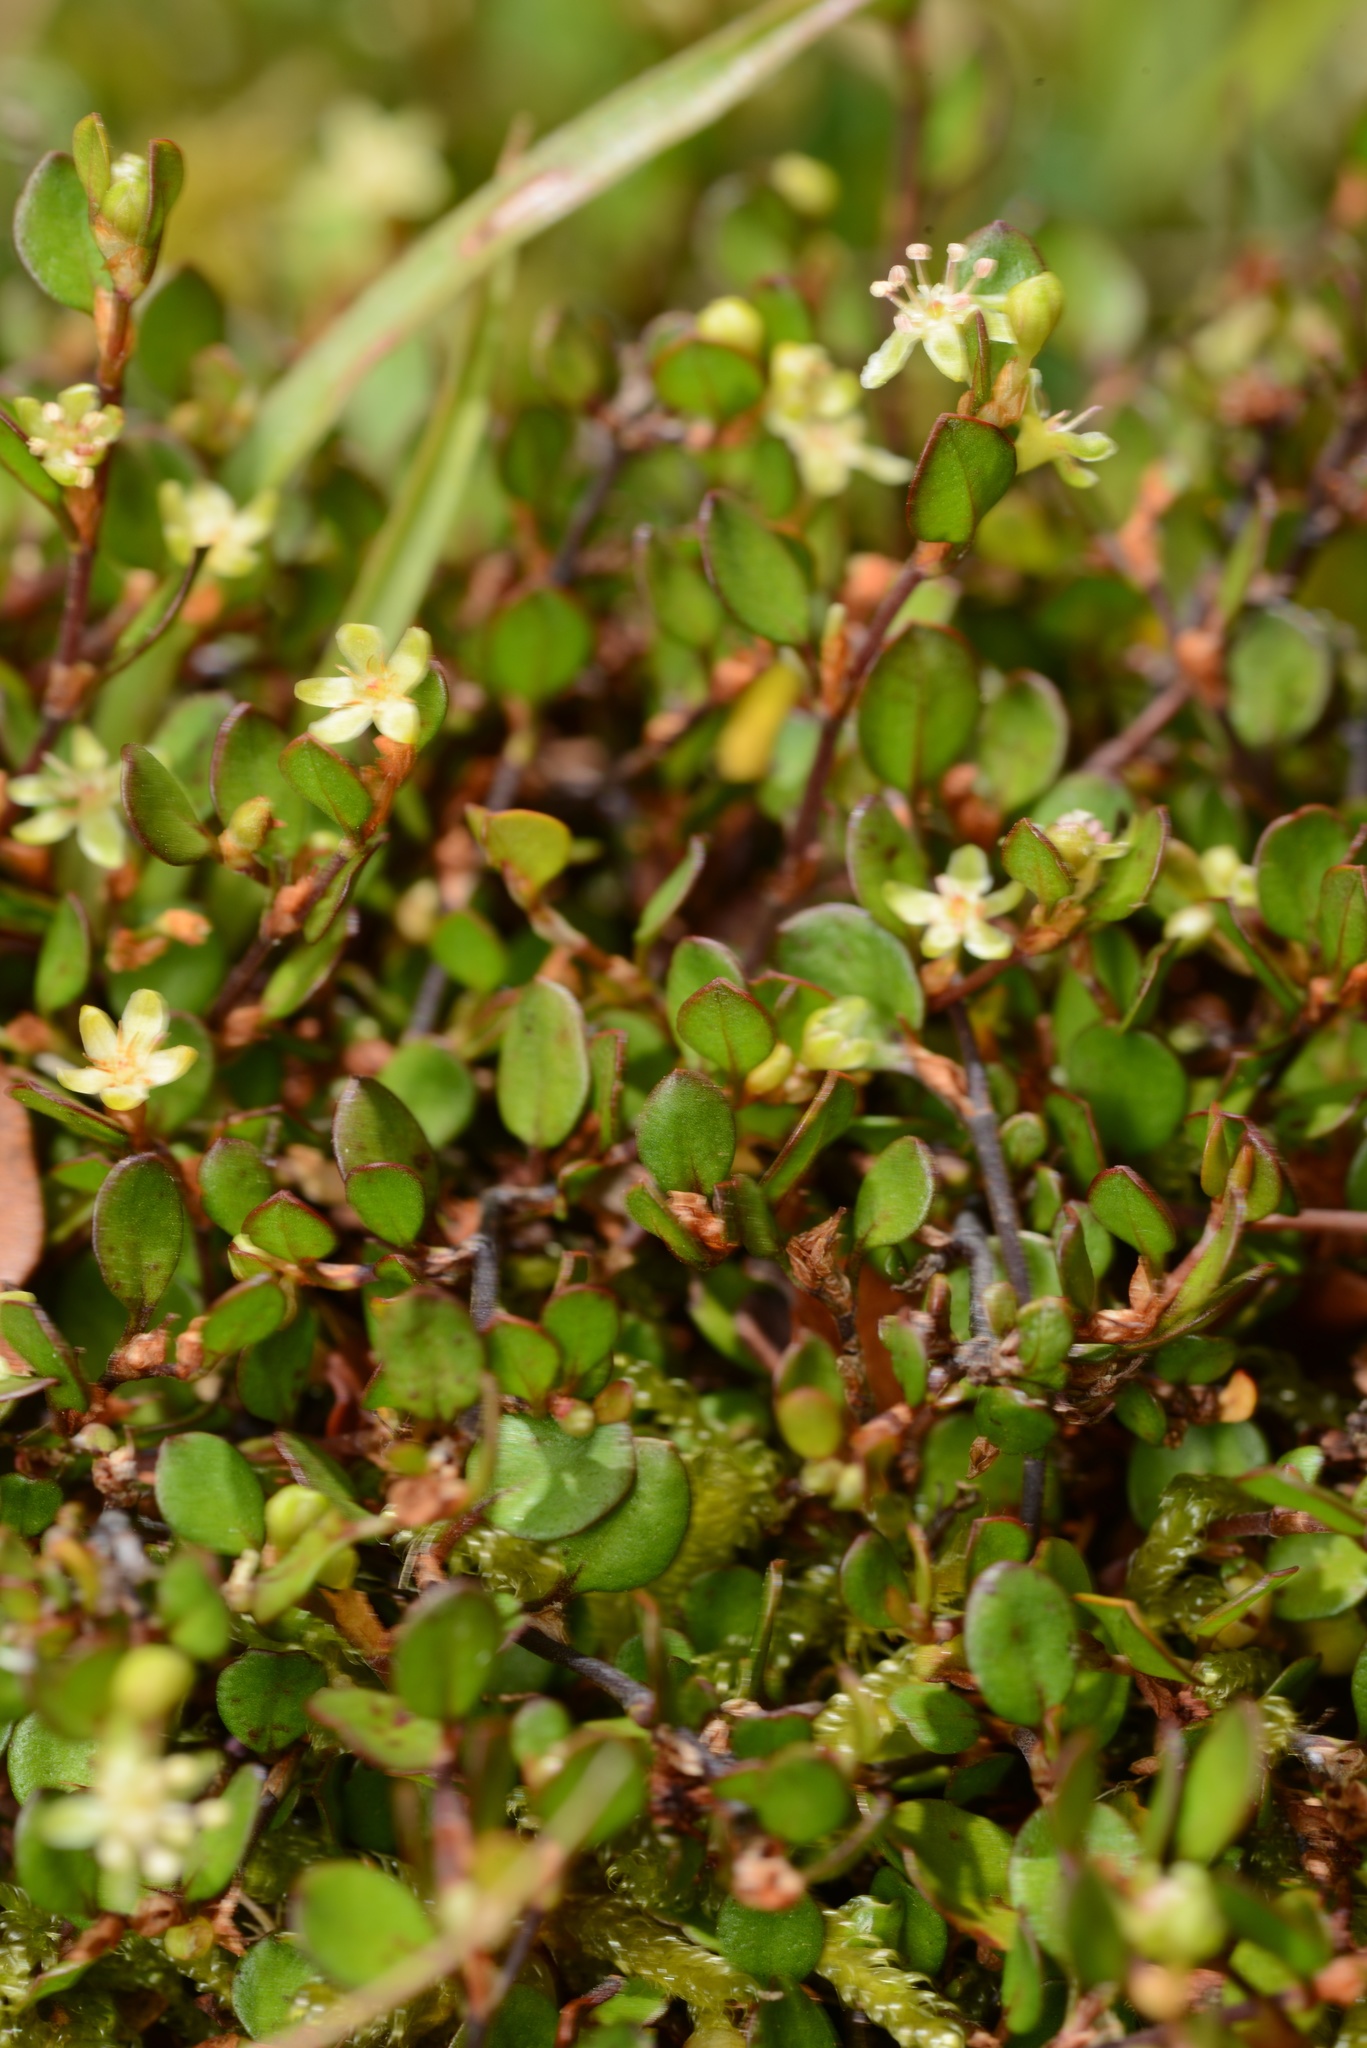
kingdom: Plantae
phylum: Tracheophyta
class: Magnoliopsida
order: Caryophyllales
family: Polygonaceae
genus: Muehlenbeckia
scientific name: Muehlenbeckia axillaris
